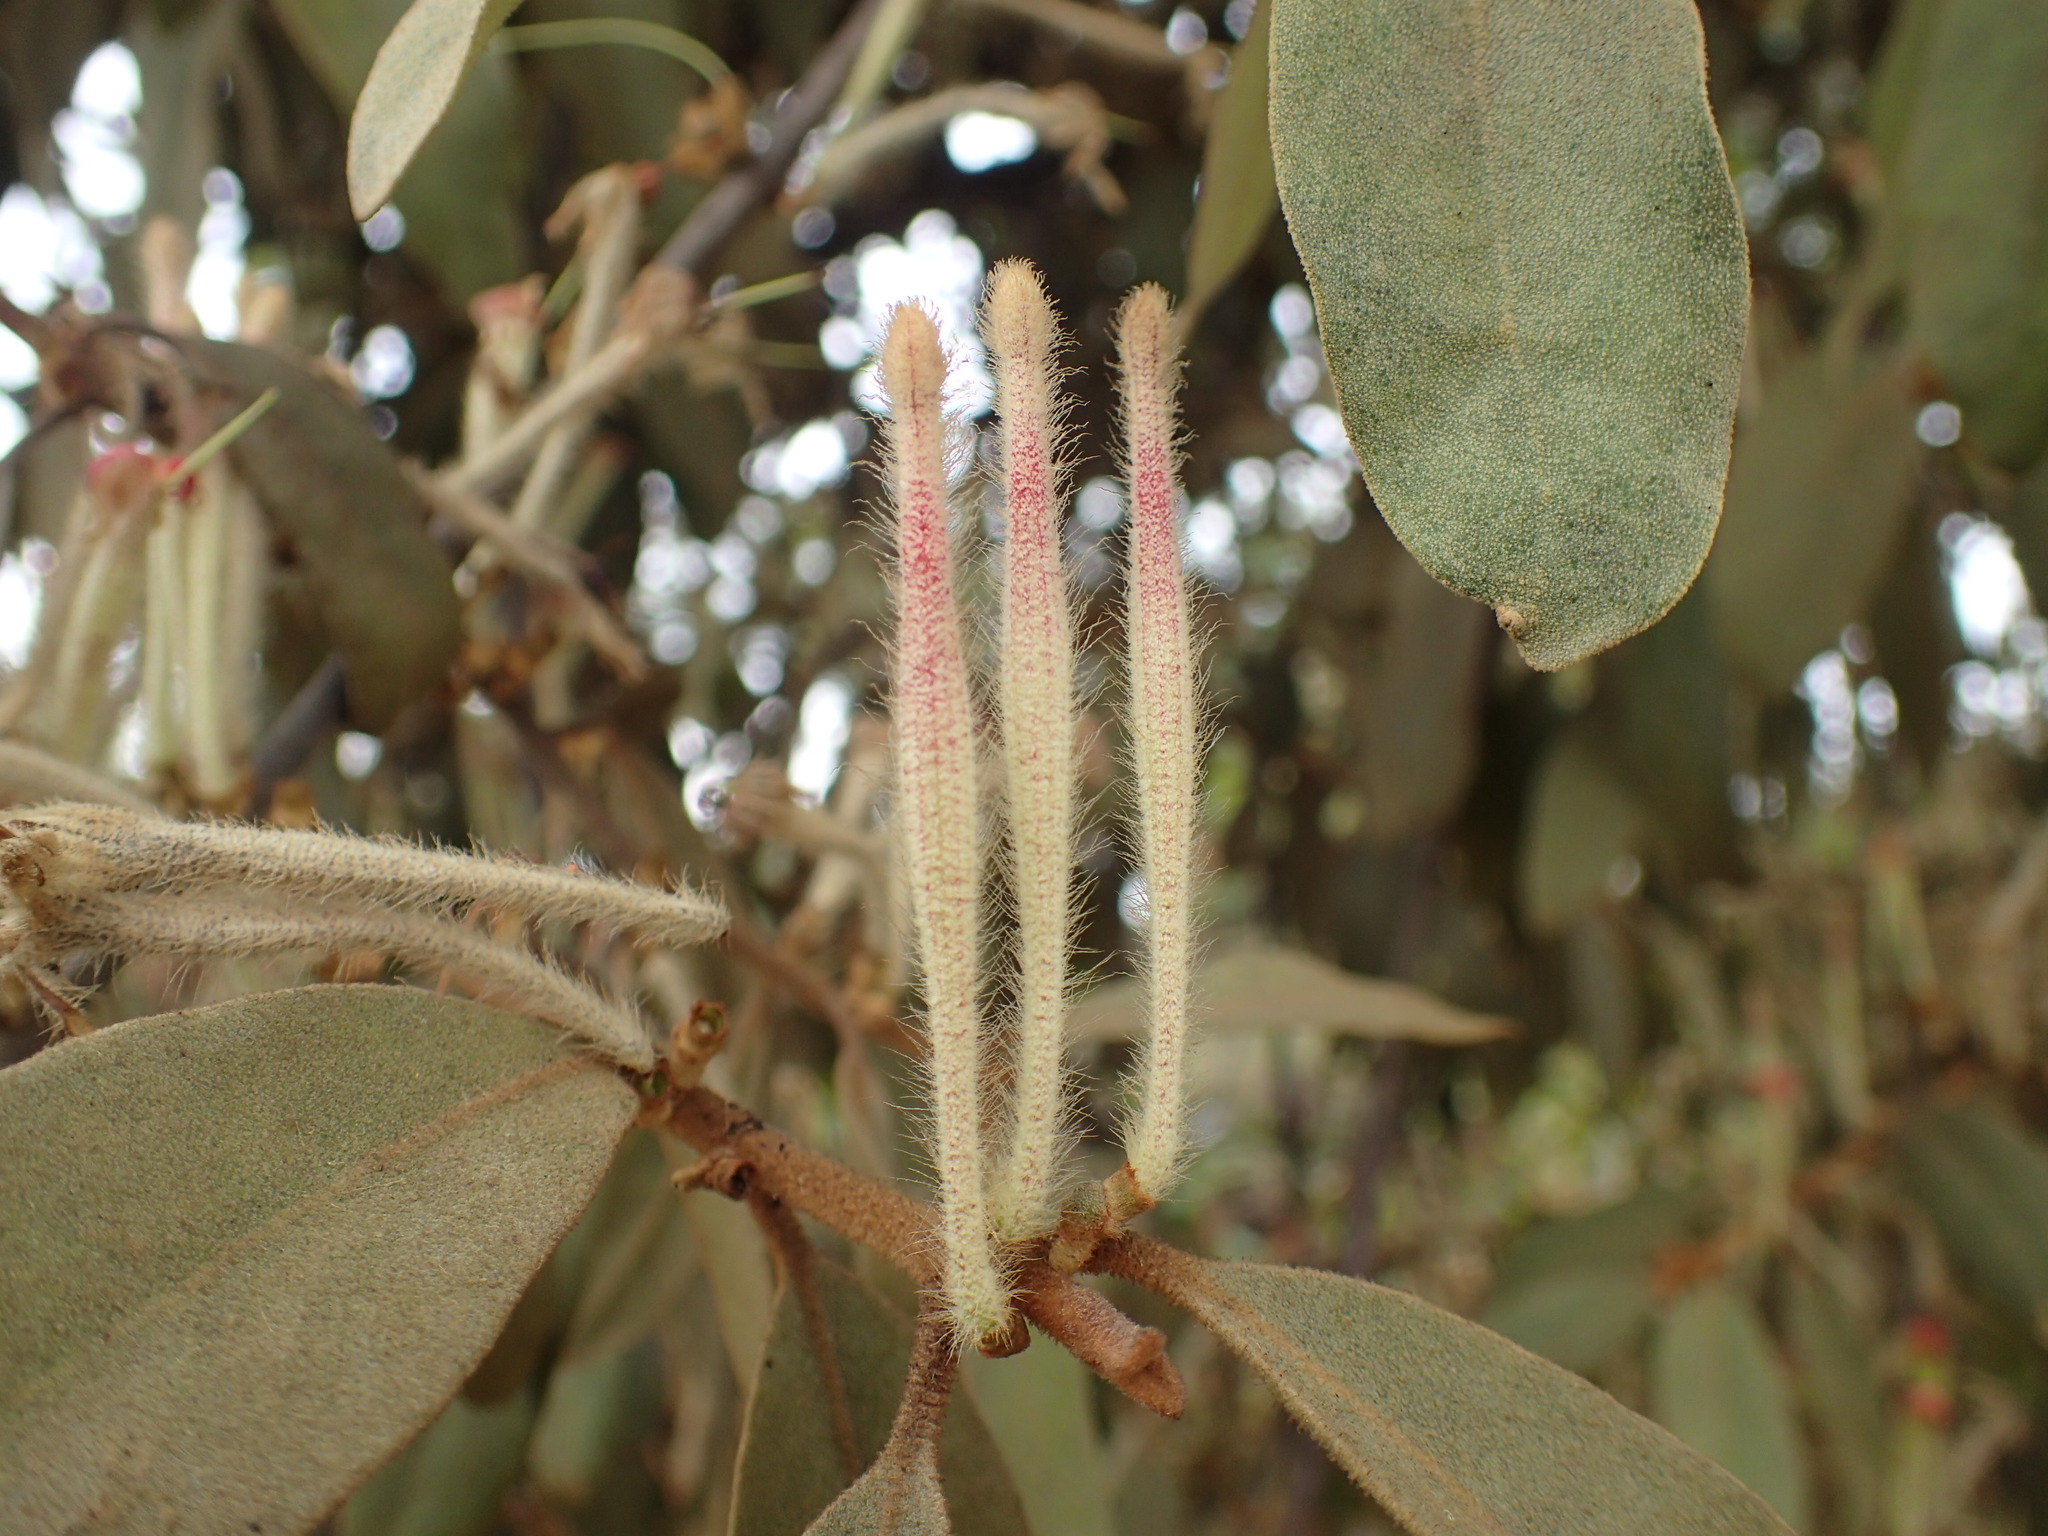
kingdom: Plantae
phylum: Tracheophyta
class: Magnoliopsida
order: Santalales
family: Loranthaceae
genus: Phragmanthera
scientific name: Phragmanthera eminii
